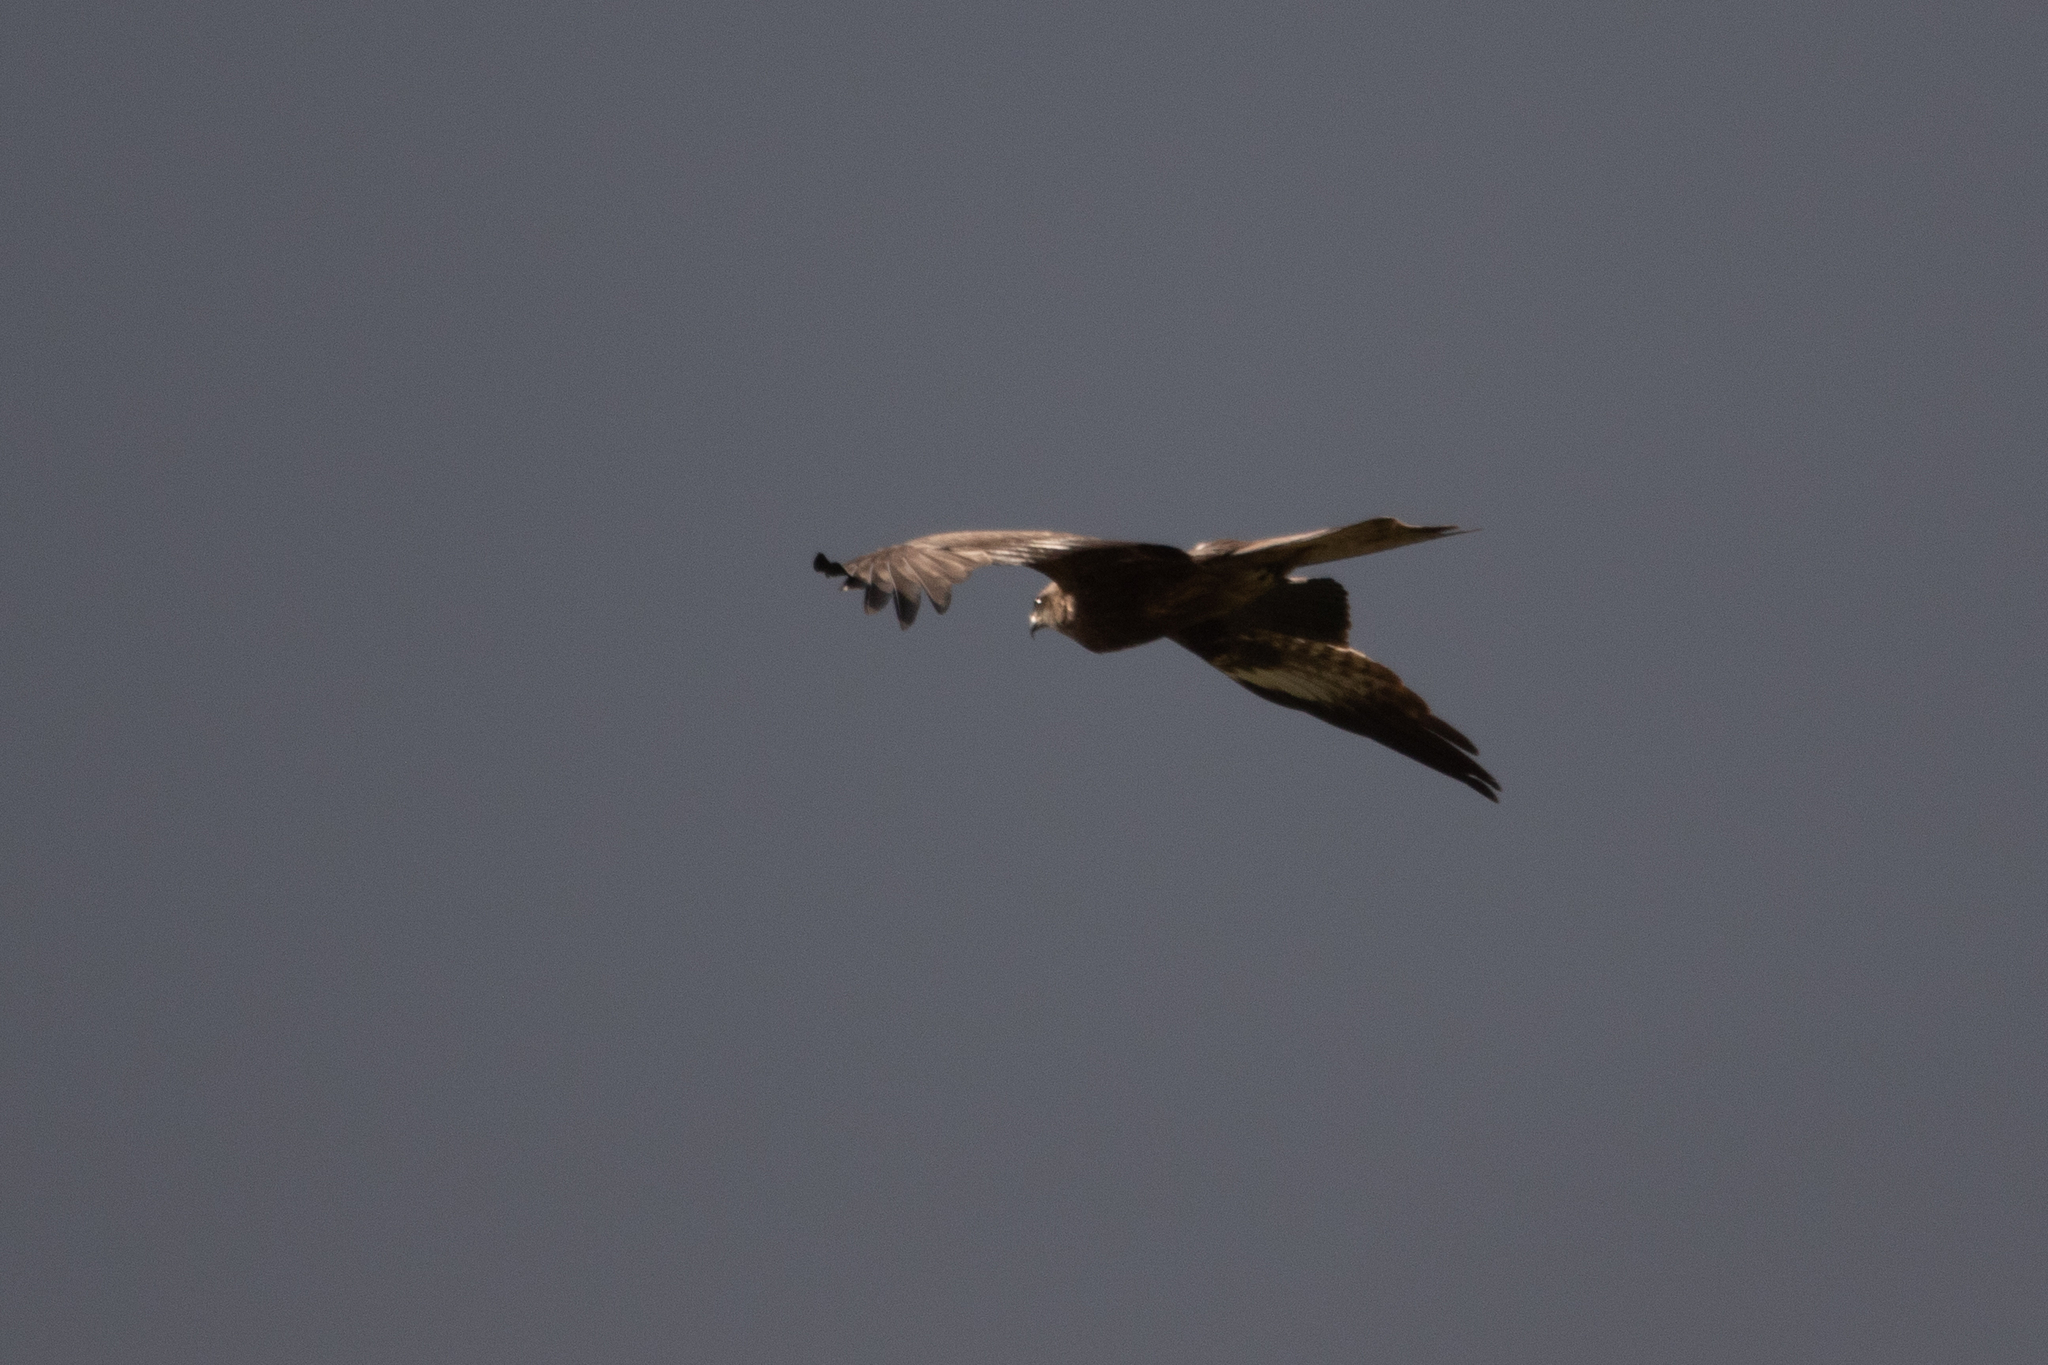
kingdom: Animalia
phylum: Chordata
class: Aves
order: Accipitriformes
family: Accipitridae
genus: Milvus
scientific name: Milvus migrans
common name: Black kite
